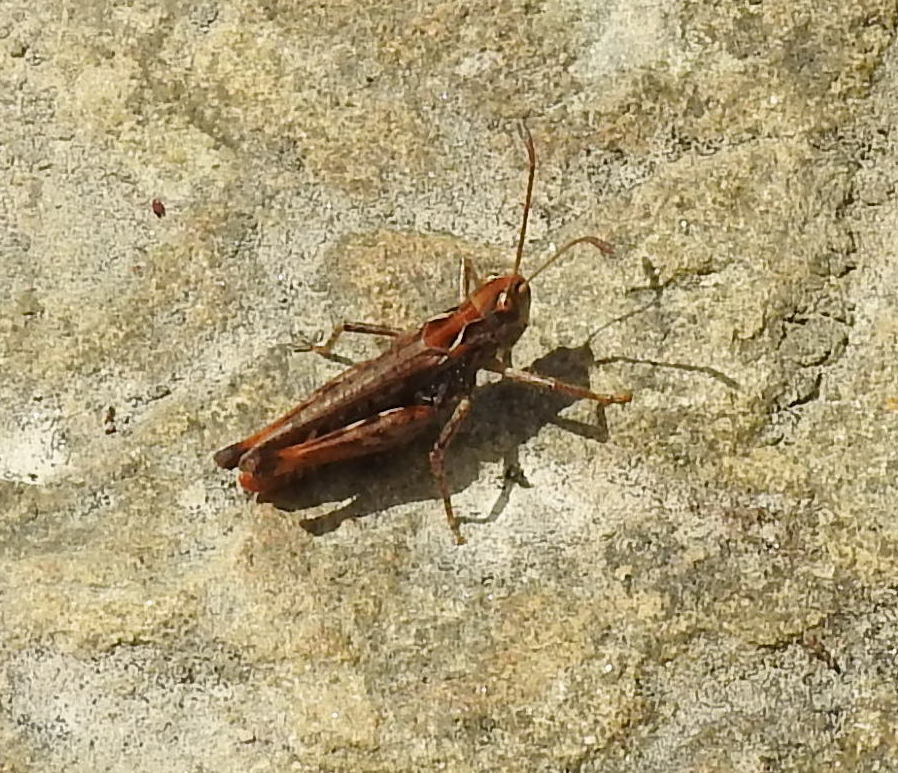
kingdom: Animalia
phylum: Arthropoda
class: Insecta
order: Orthoptera
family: Acrididae
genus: Myrmeleotettix
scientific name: Myrmeleotettix maculatus
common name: Mottled grasshopper
